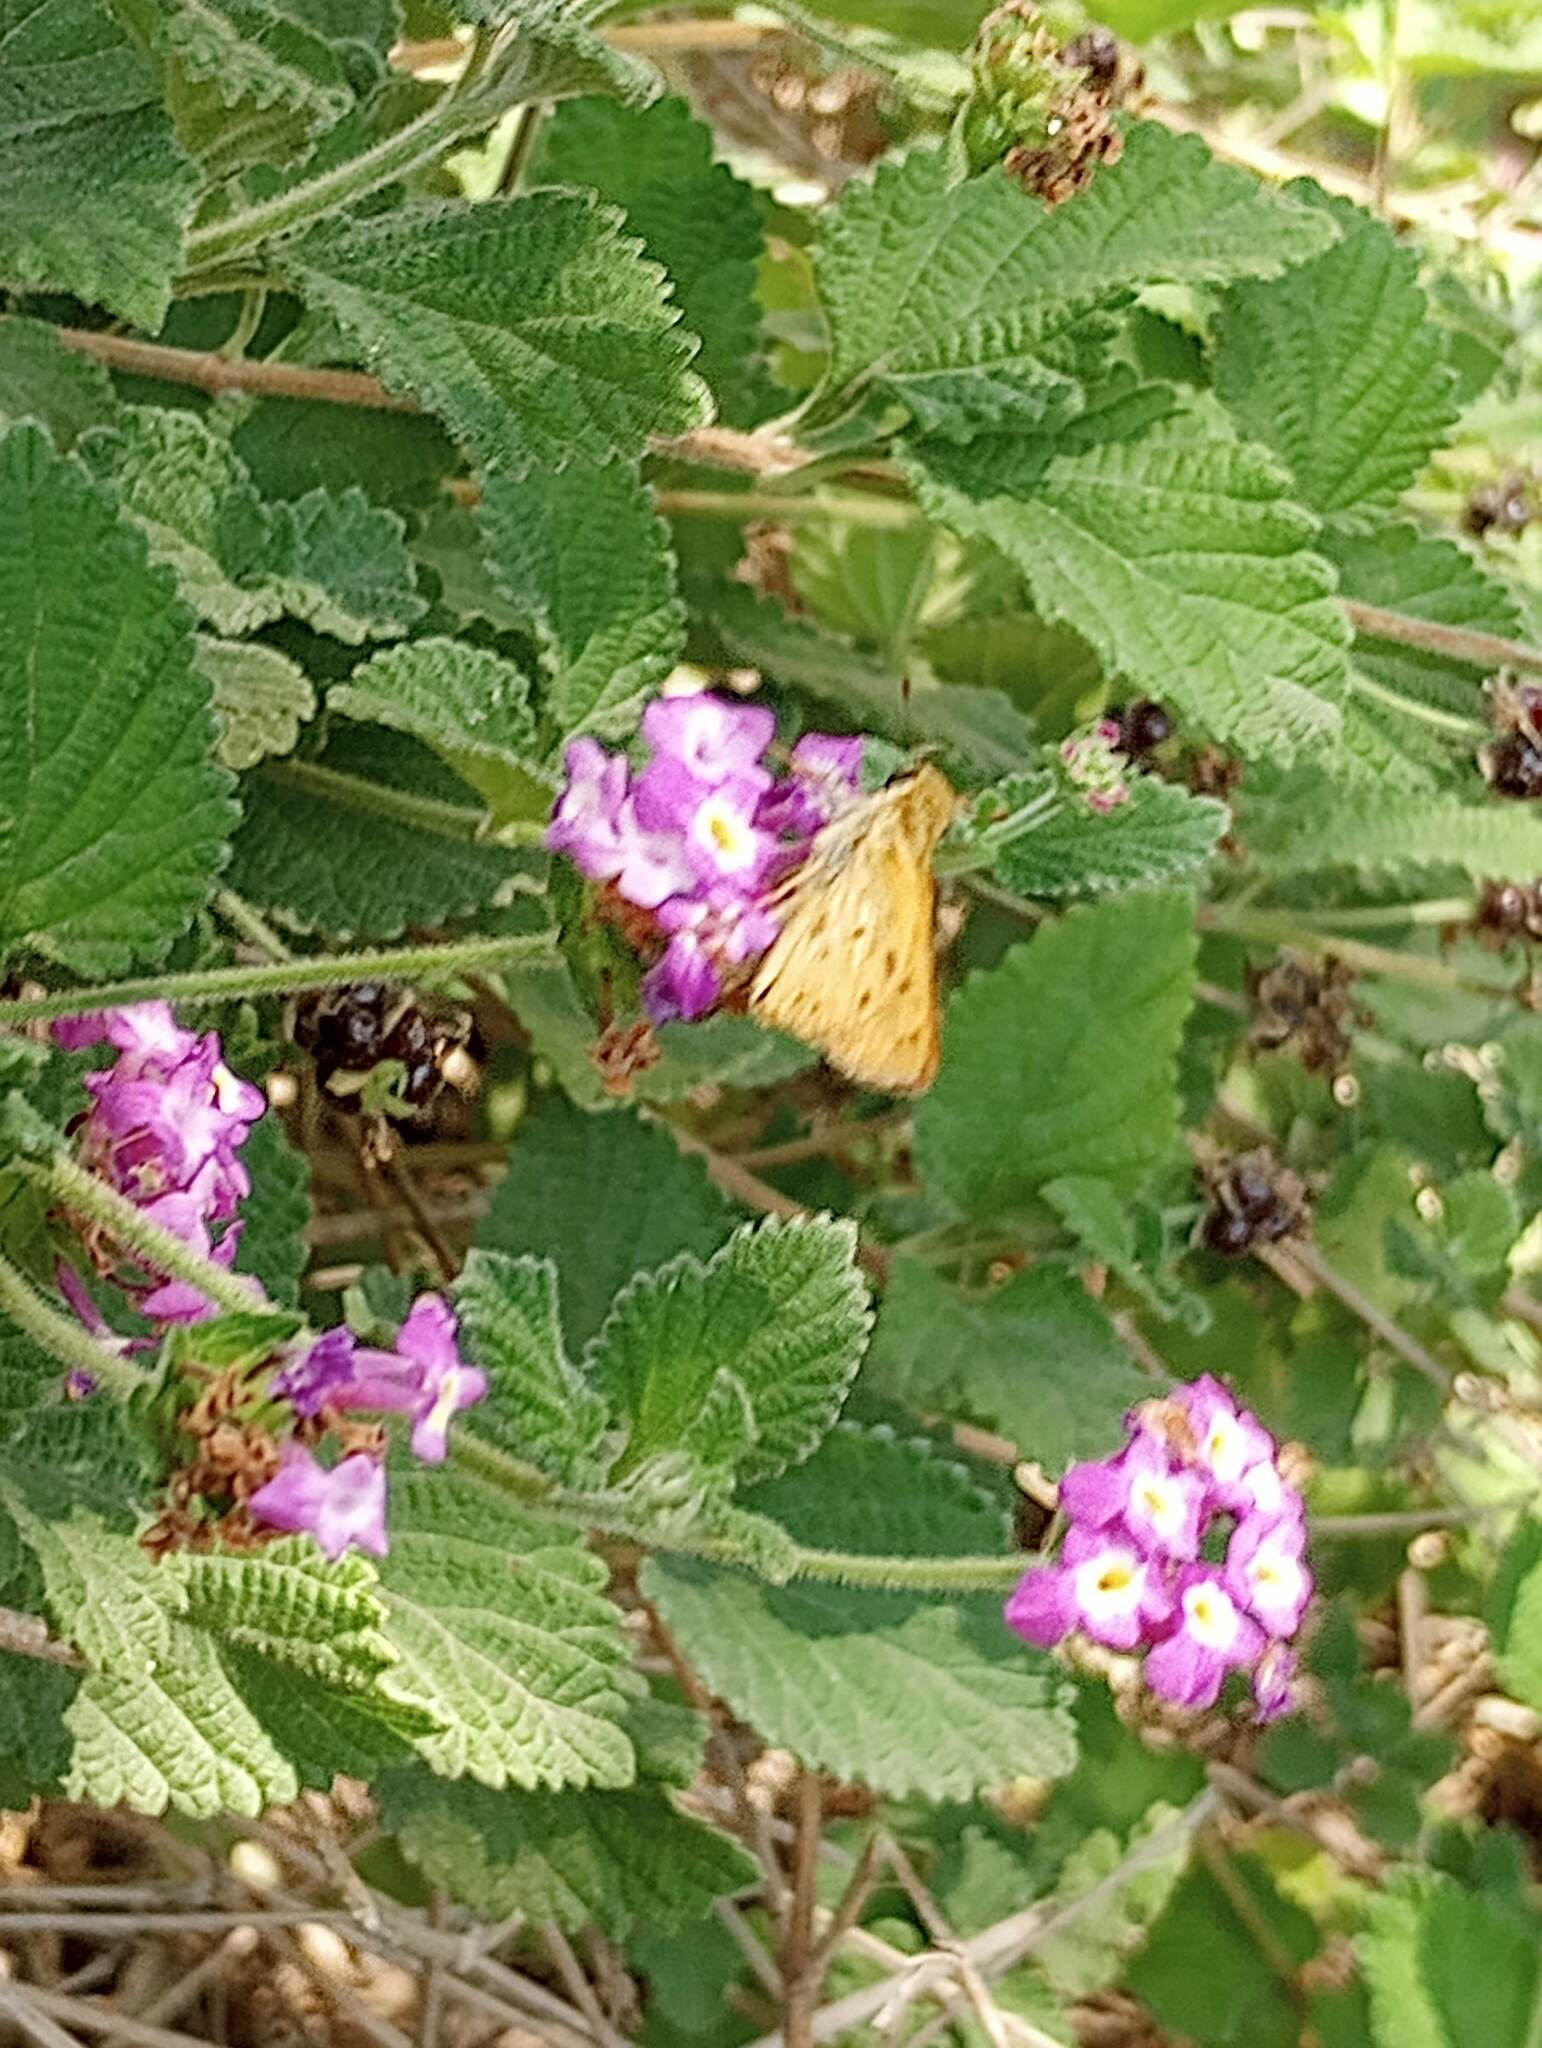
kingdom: Animalia
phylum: Arthropoda
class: Insecta
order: Lepidoptera
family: Hesperiidae
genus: Hylephila
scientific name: Hylephila phyleus
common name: Fiery skipper
